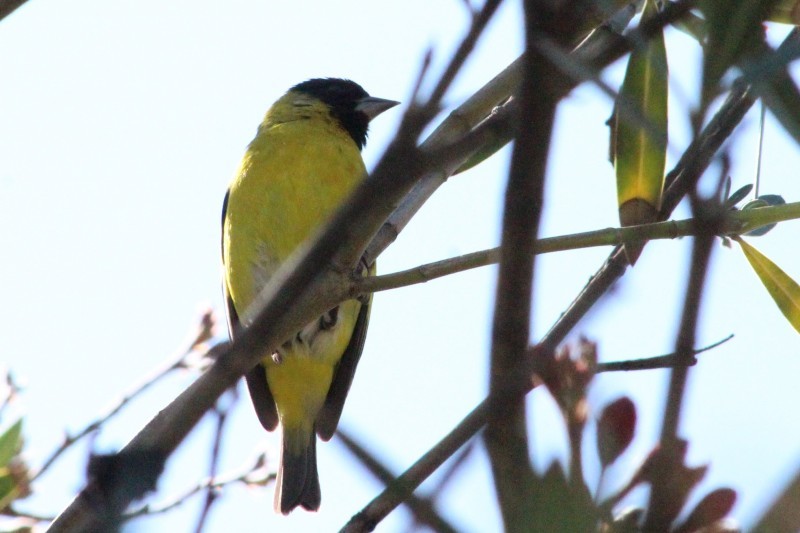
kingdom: Animalia
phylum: Chordata
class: Aves
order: Passeriformes
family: Fringillidae
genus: Spinus
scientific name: Spinus magellanicus
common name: Hooded siskin
